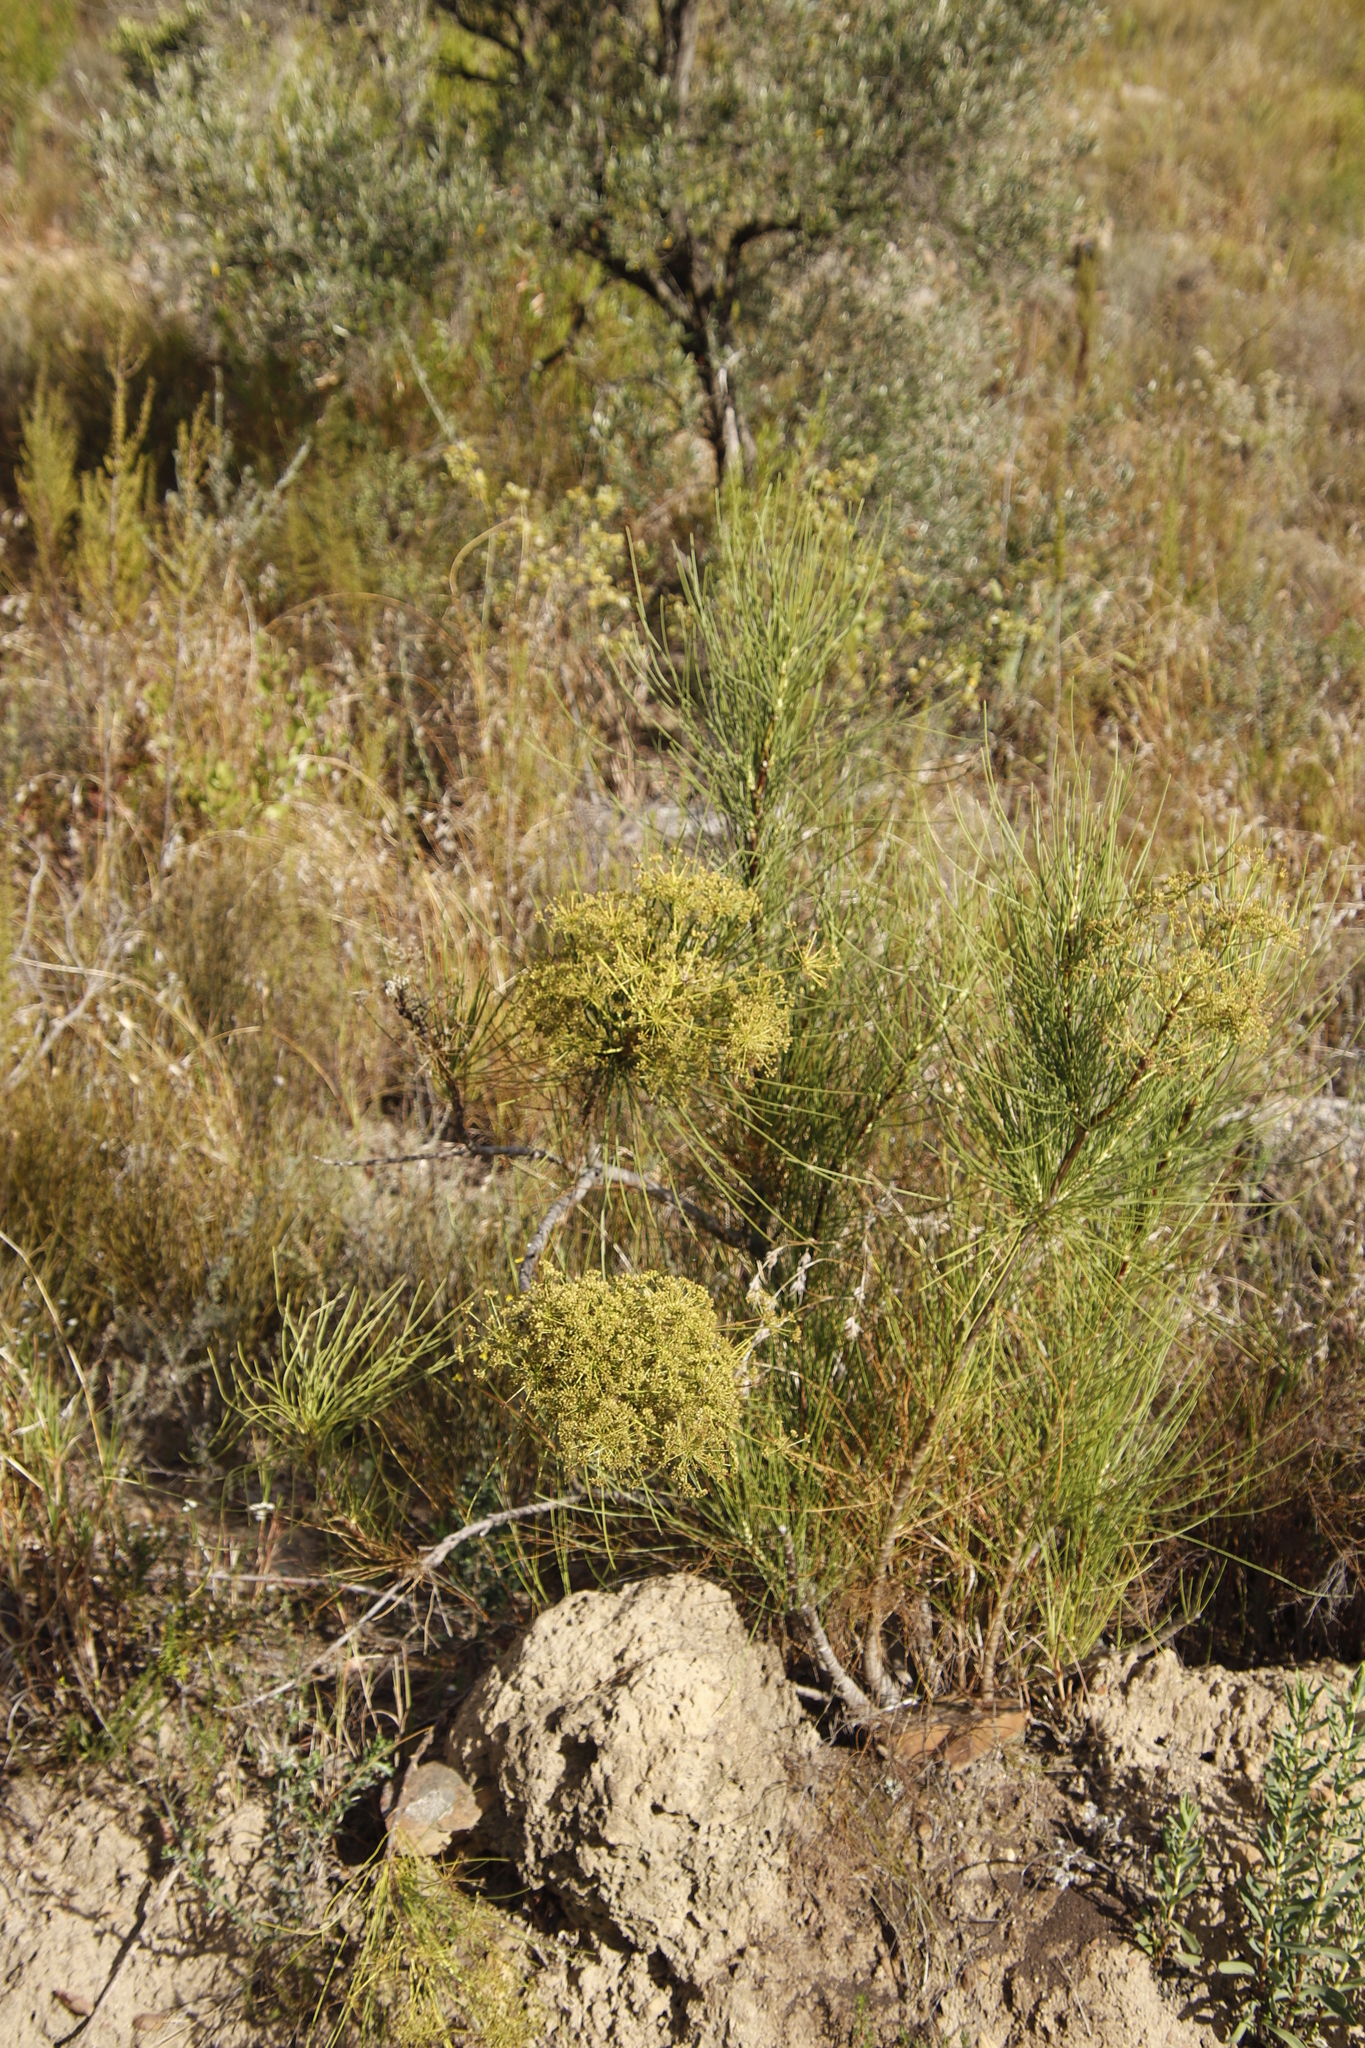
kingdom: Plantae
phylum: Tracheophyta
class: Magnoliopsida
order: Apiales
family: Apiaceae
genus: Anginon
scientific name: Anginon difforme
